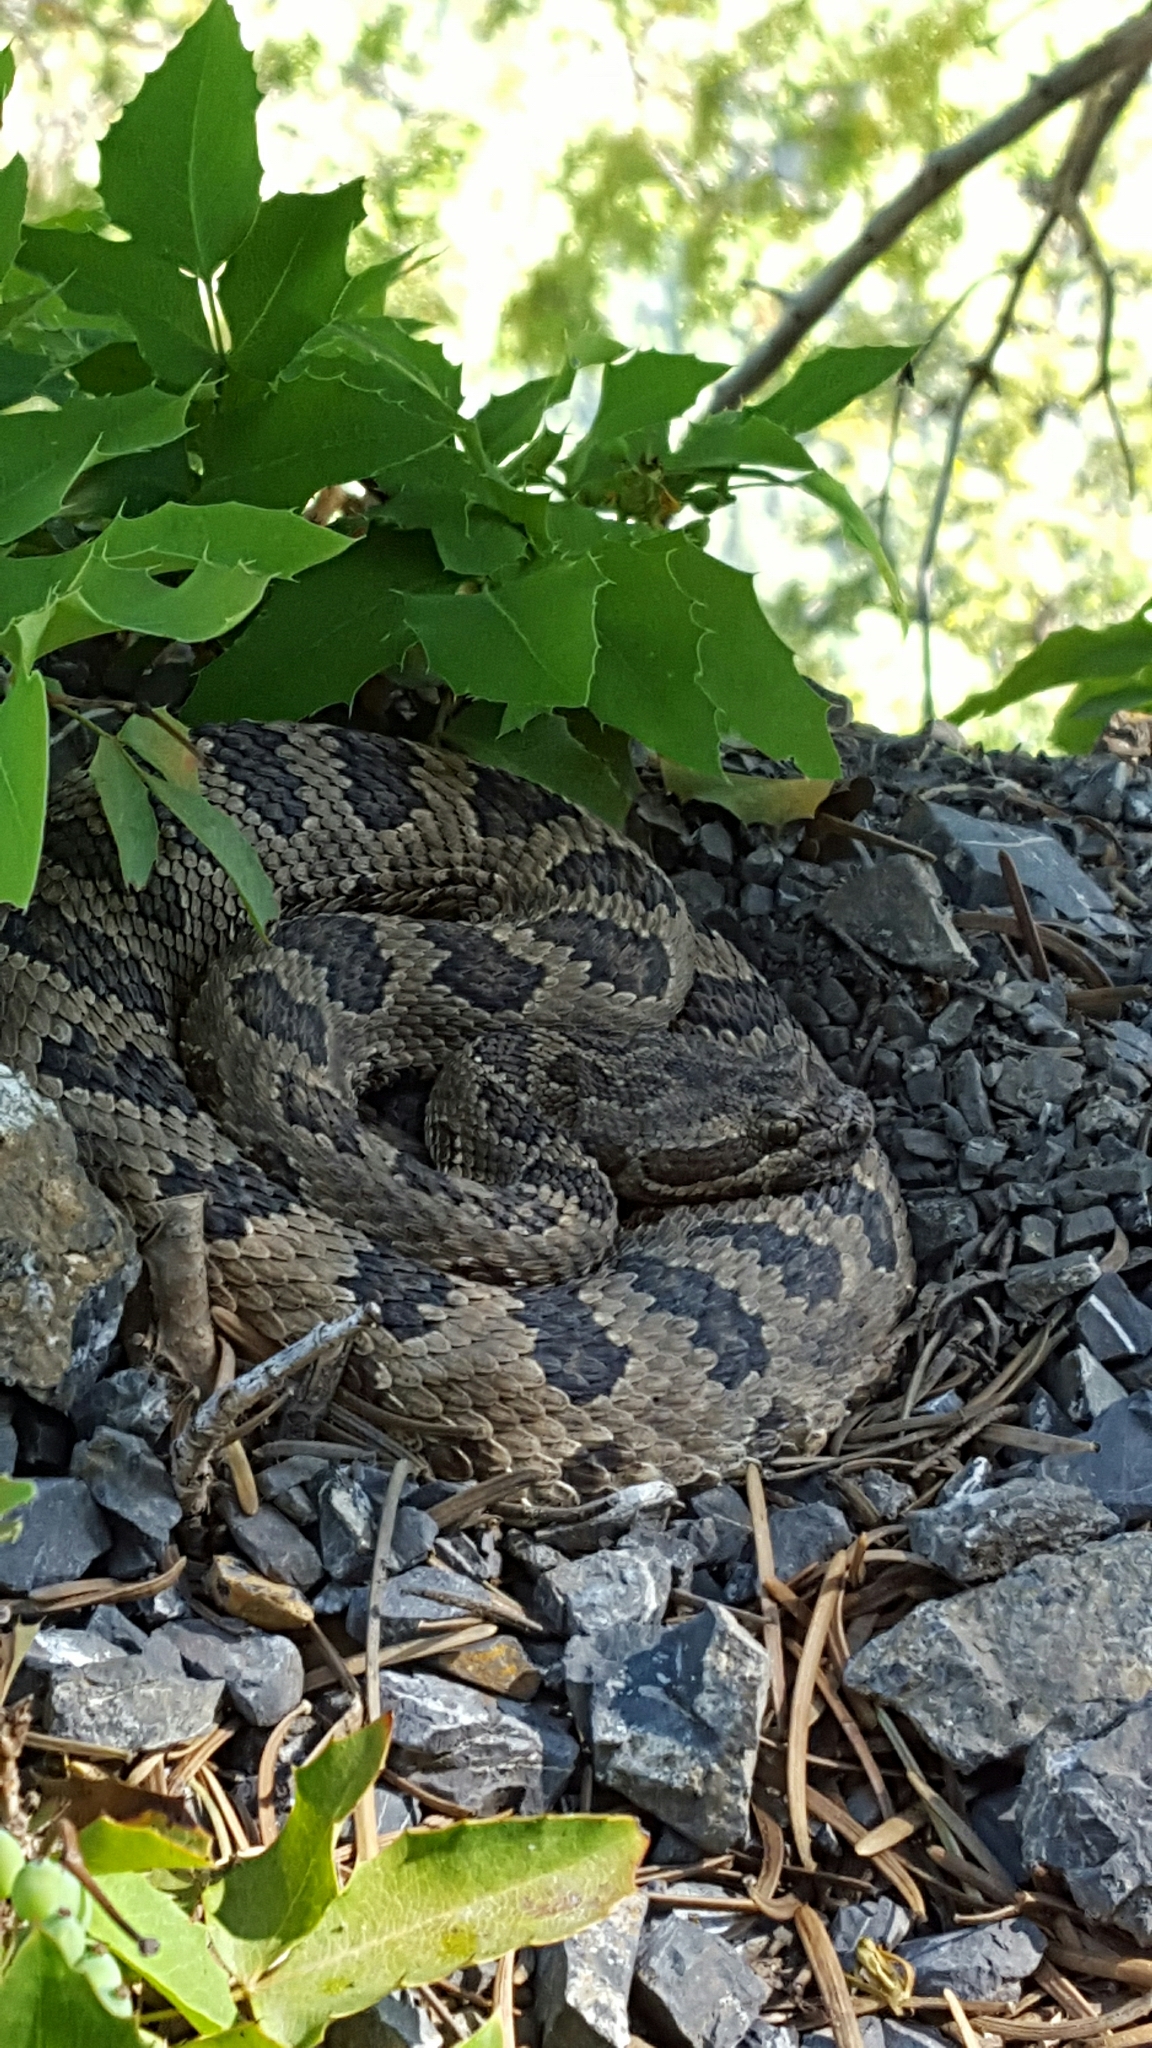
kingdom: Animalia
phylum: Chordata
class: Squamata
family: Viperidae
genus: Crotalus
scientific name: Crotalus oreganus
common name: Abyssus
